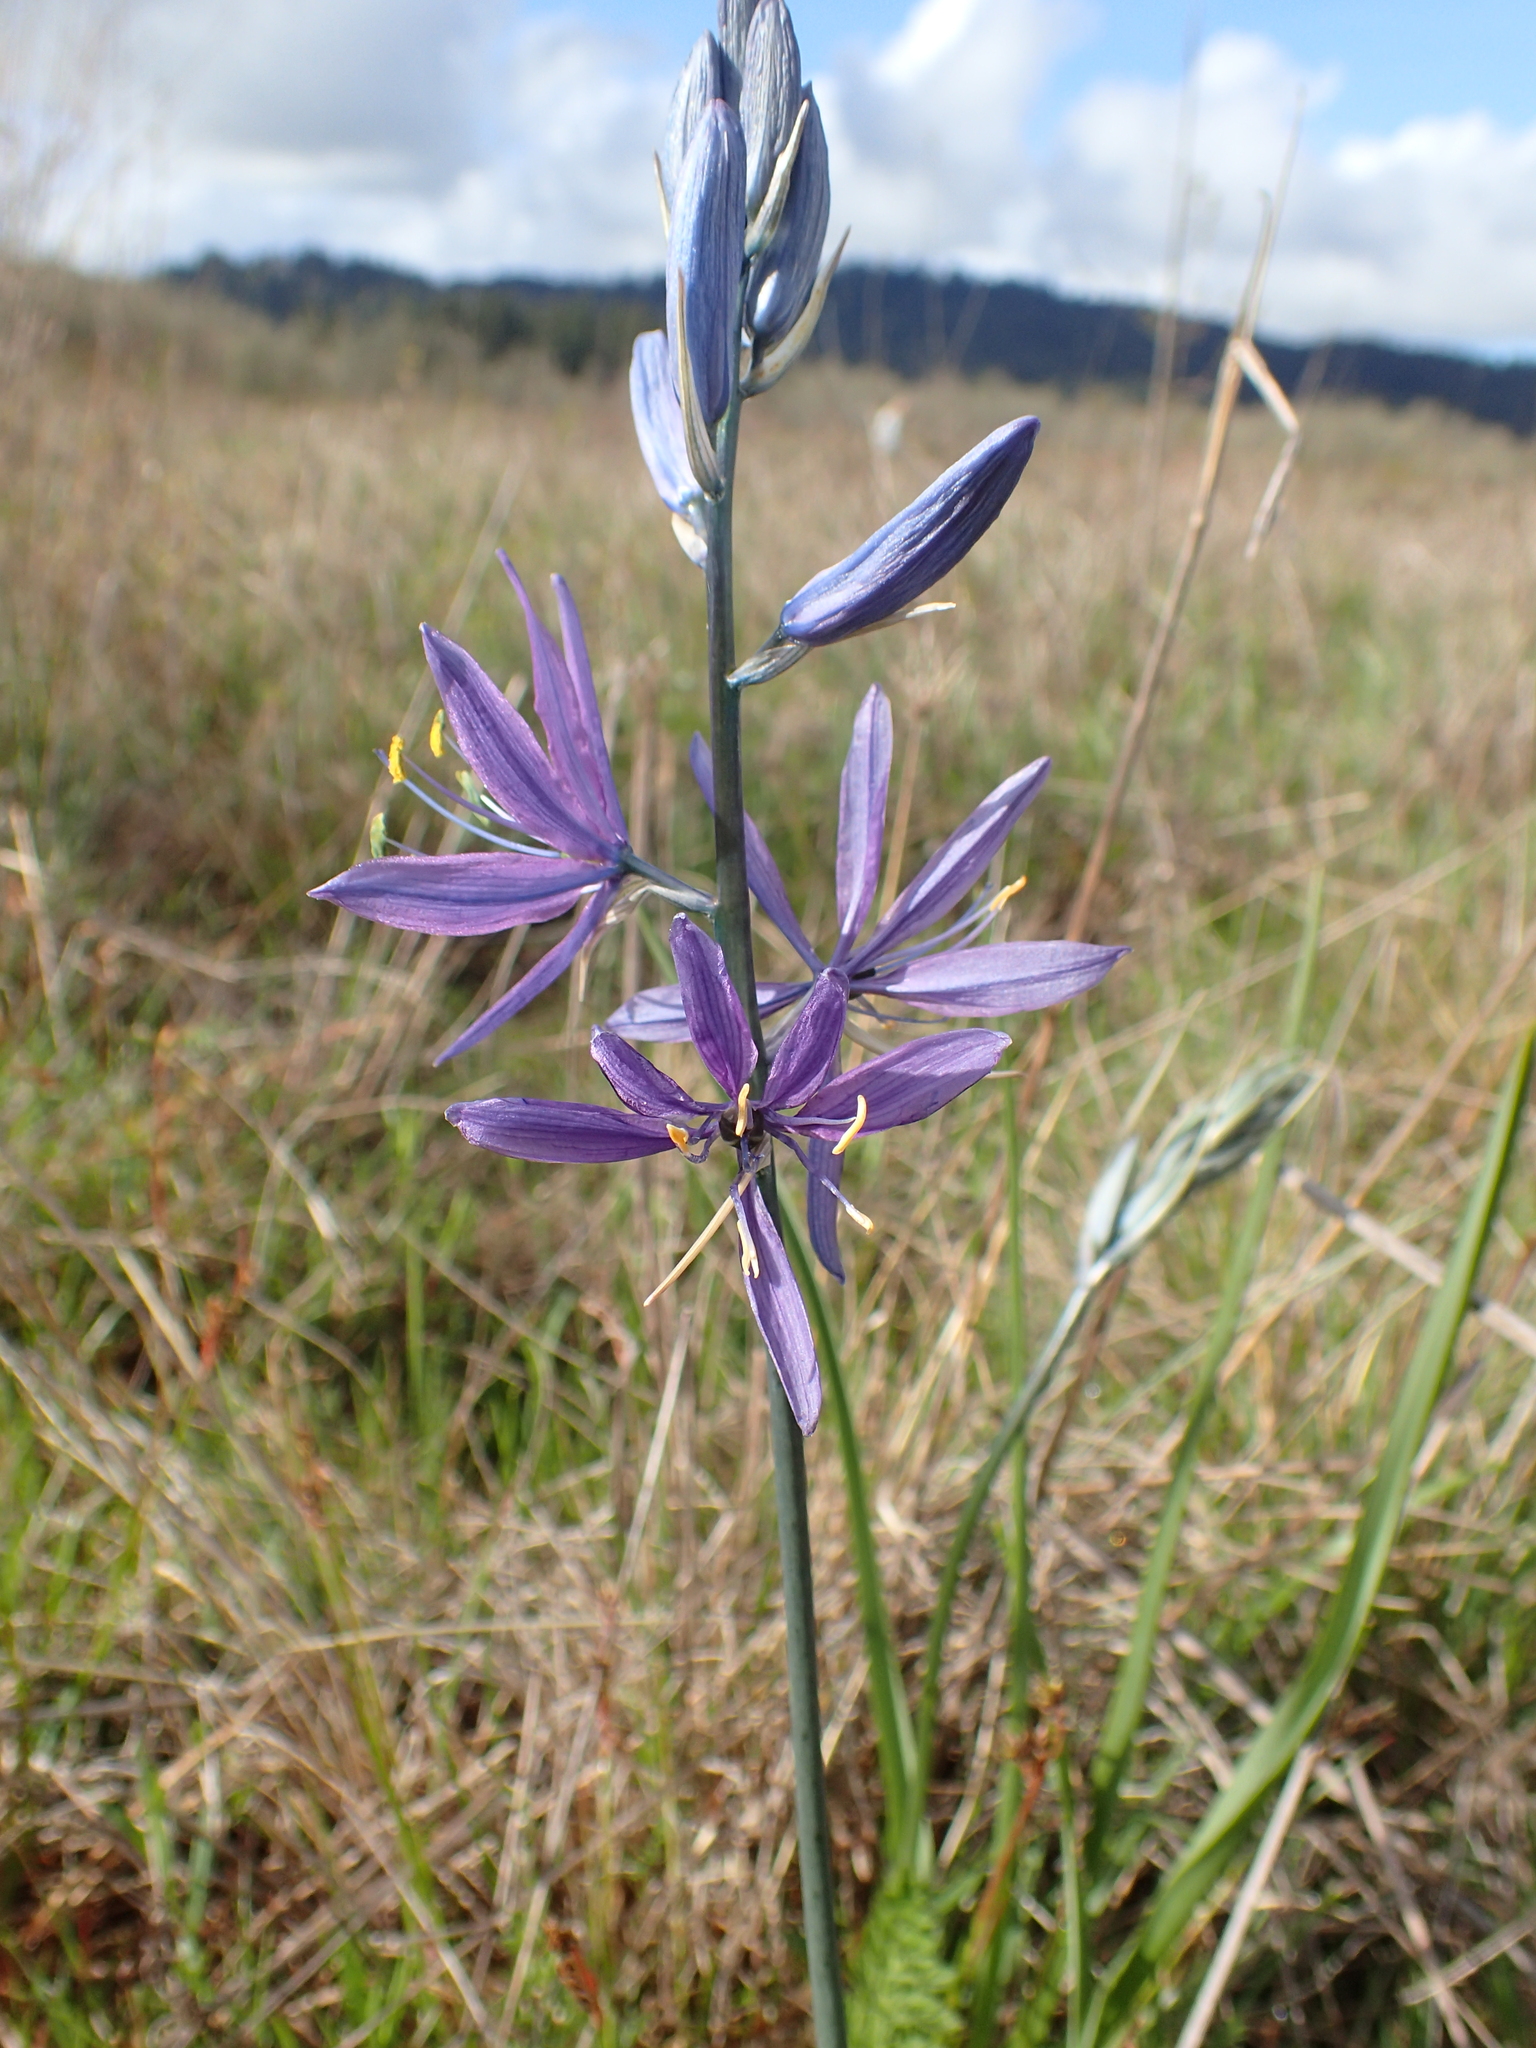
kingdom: Plantae
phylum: Tracheophyta
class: Liliopsida
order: Asparagales
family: Asparagaceae
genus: Camassia
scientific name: Camassia quamash
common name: Common camas
